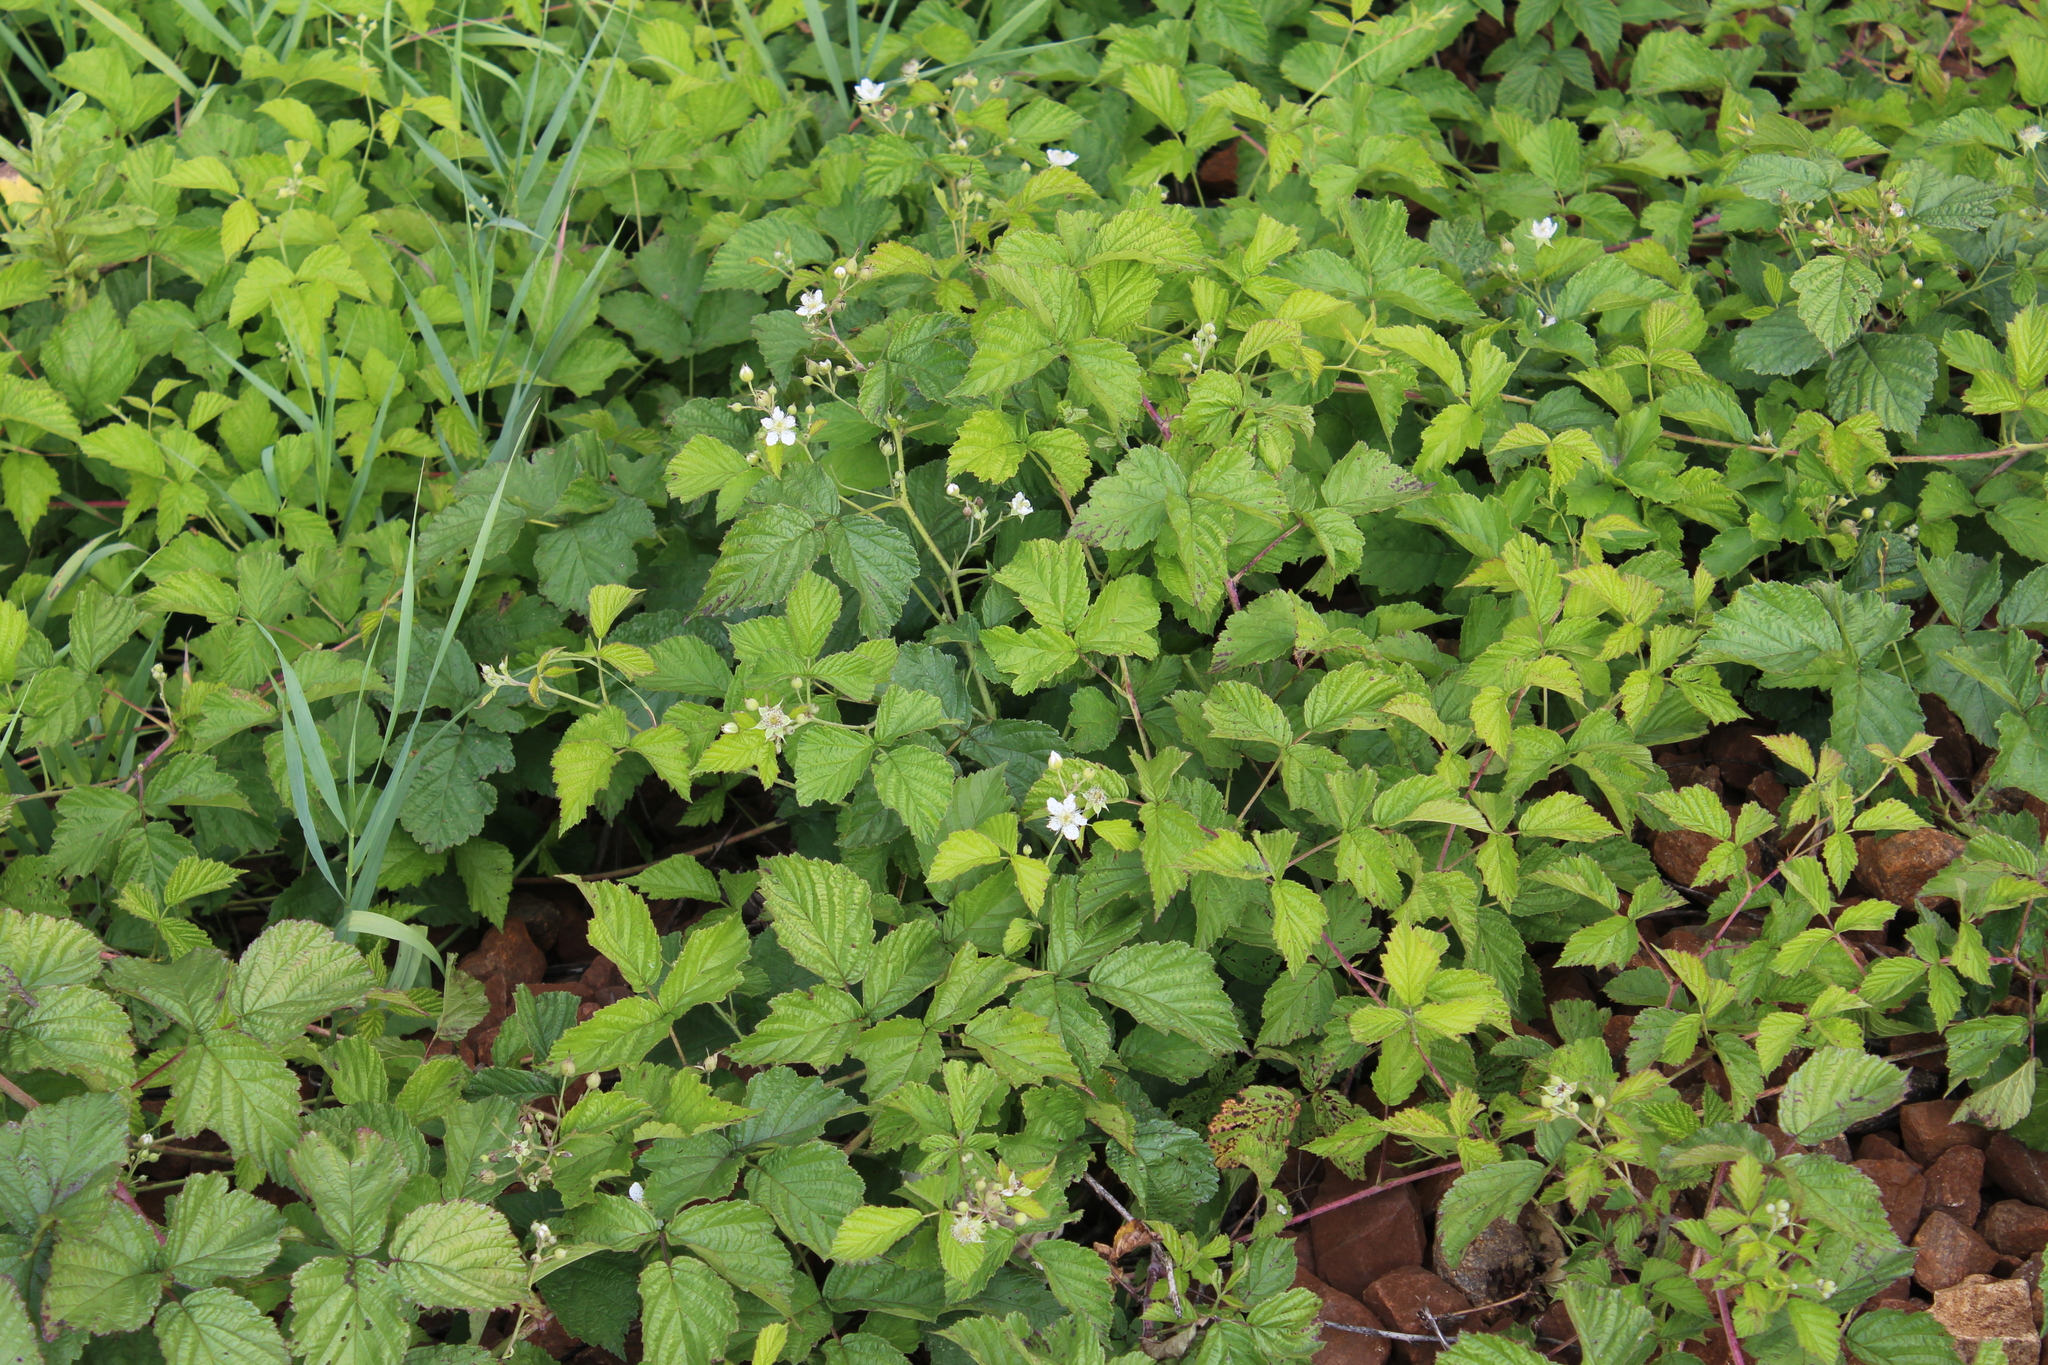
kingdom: Plantae
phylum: Tracheophyta
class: Magnoliopsida
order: Rosales
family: Rosaceae
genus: Rubus
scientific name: Rubus caesius
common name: Dewberry
